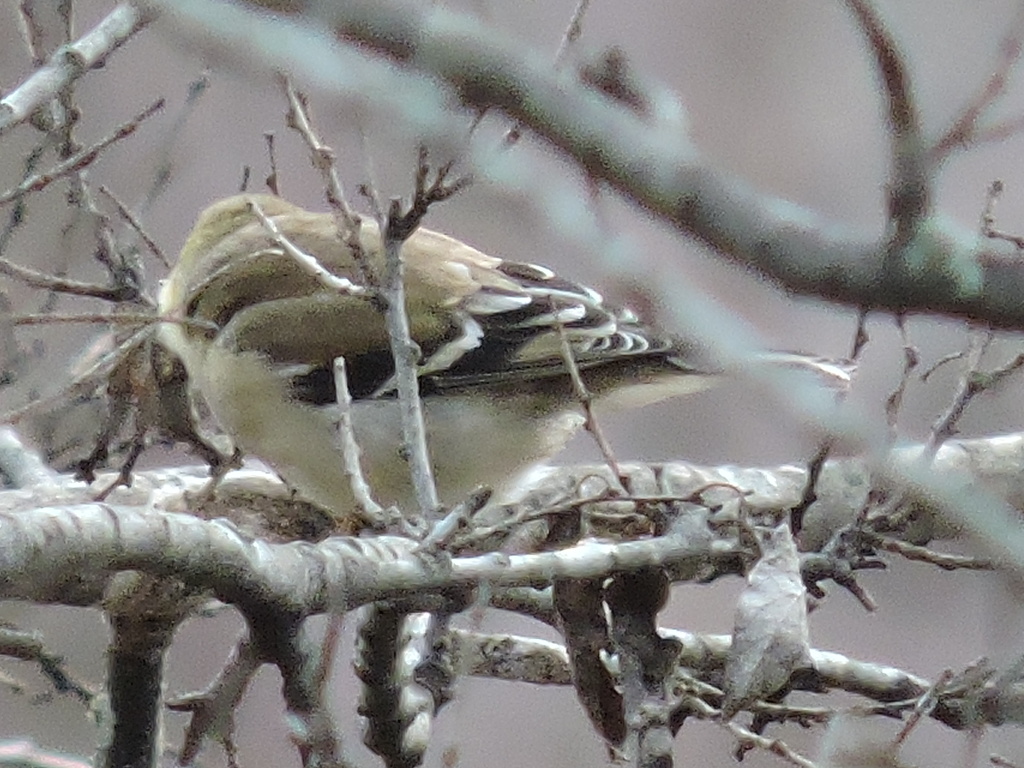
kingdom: Animalia
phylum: Chordata
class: Aves
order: Passeriformes
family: Fringillidae
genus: Spinus
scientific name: Spinus tristis
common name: American goldfinch
